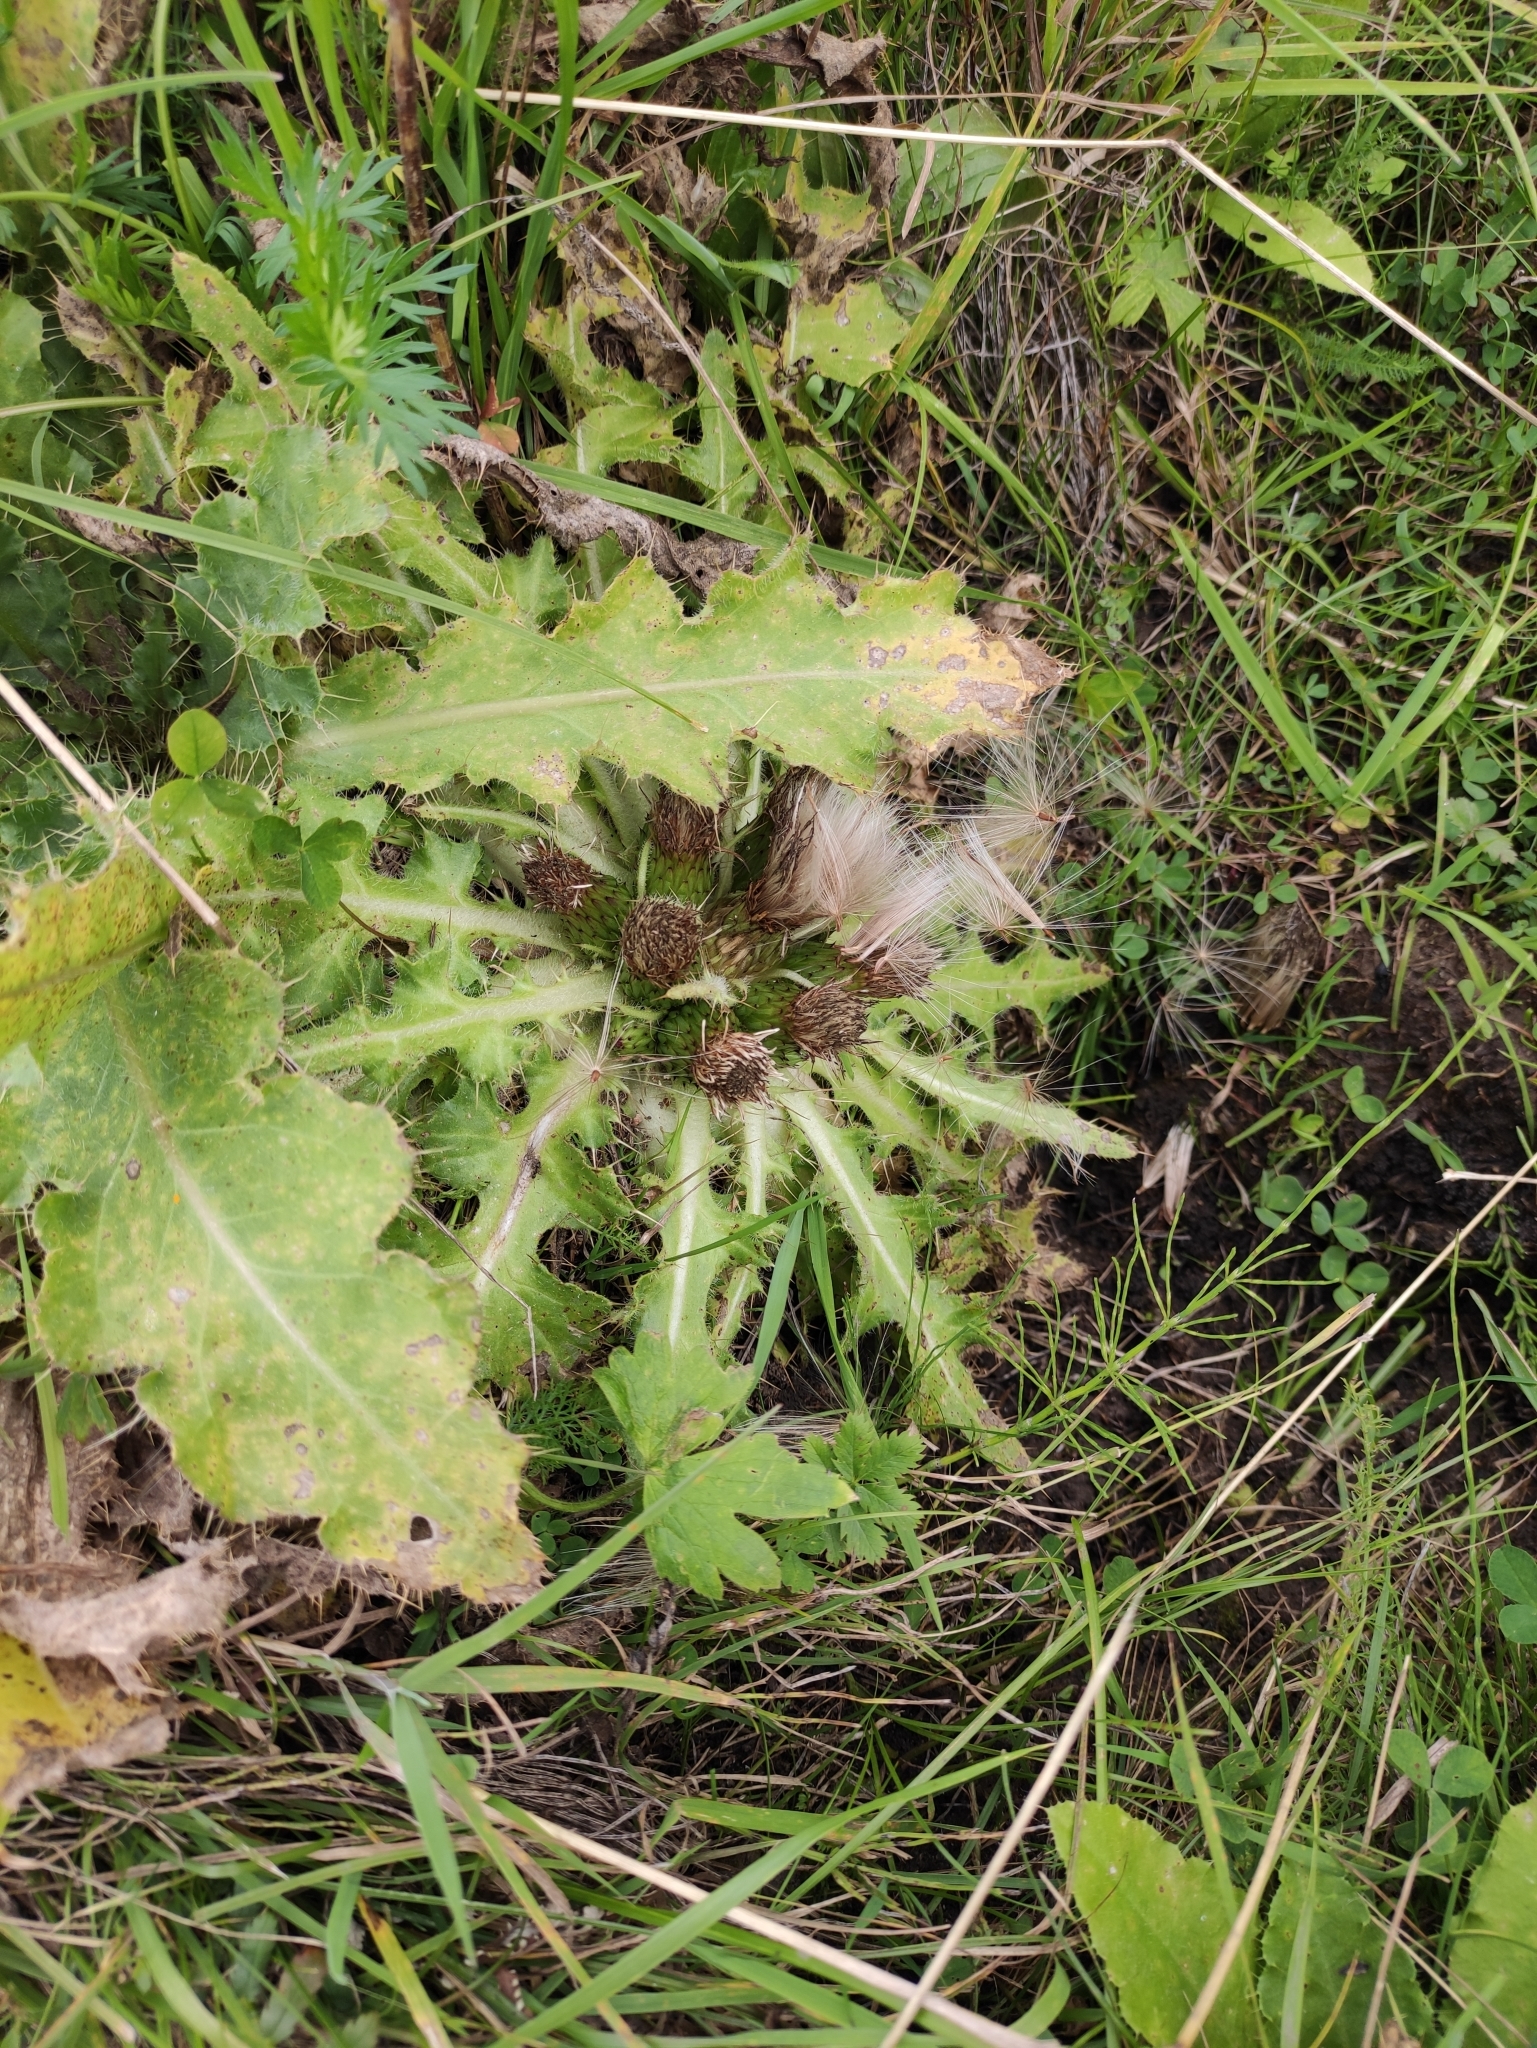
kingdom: Plantae
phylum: Tracheophyta
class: Magnoliopsida
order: Asterales
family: Asteraceae
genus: Cirsium
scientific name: Cirsium esculentum
